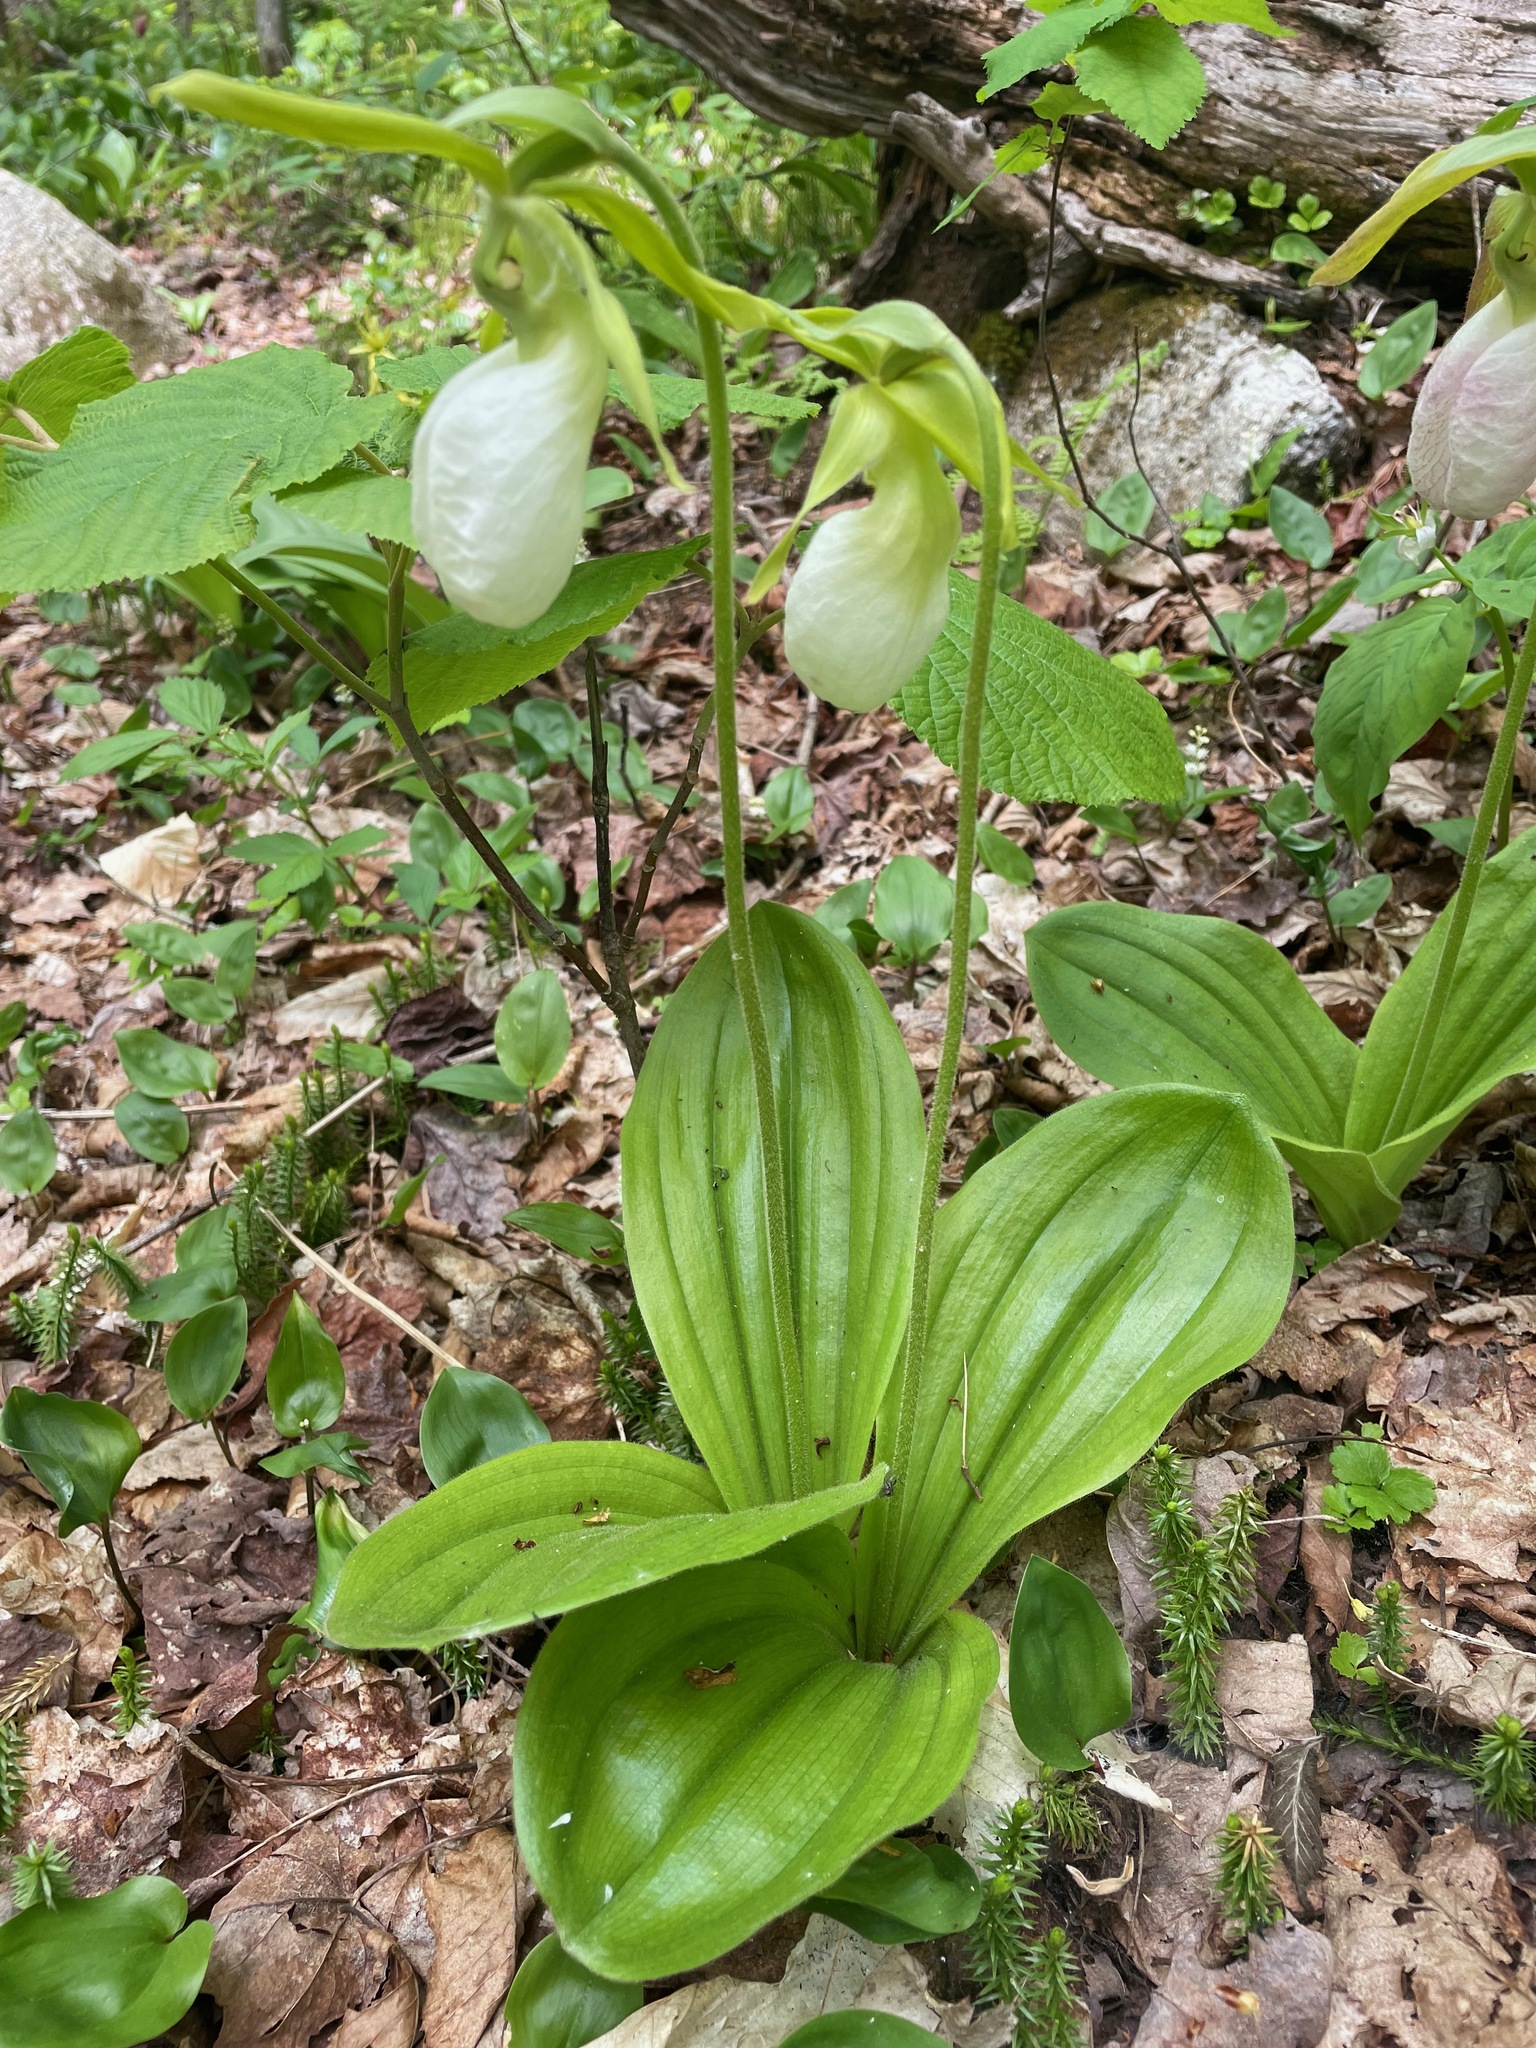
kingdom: Plantae
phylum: Tracheophyta
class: Liliopsida
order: Asparagales
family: Orchidaceae
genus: Cypripedium
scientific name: Cypripedium acaule
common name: Pink lady's-slipper
